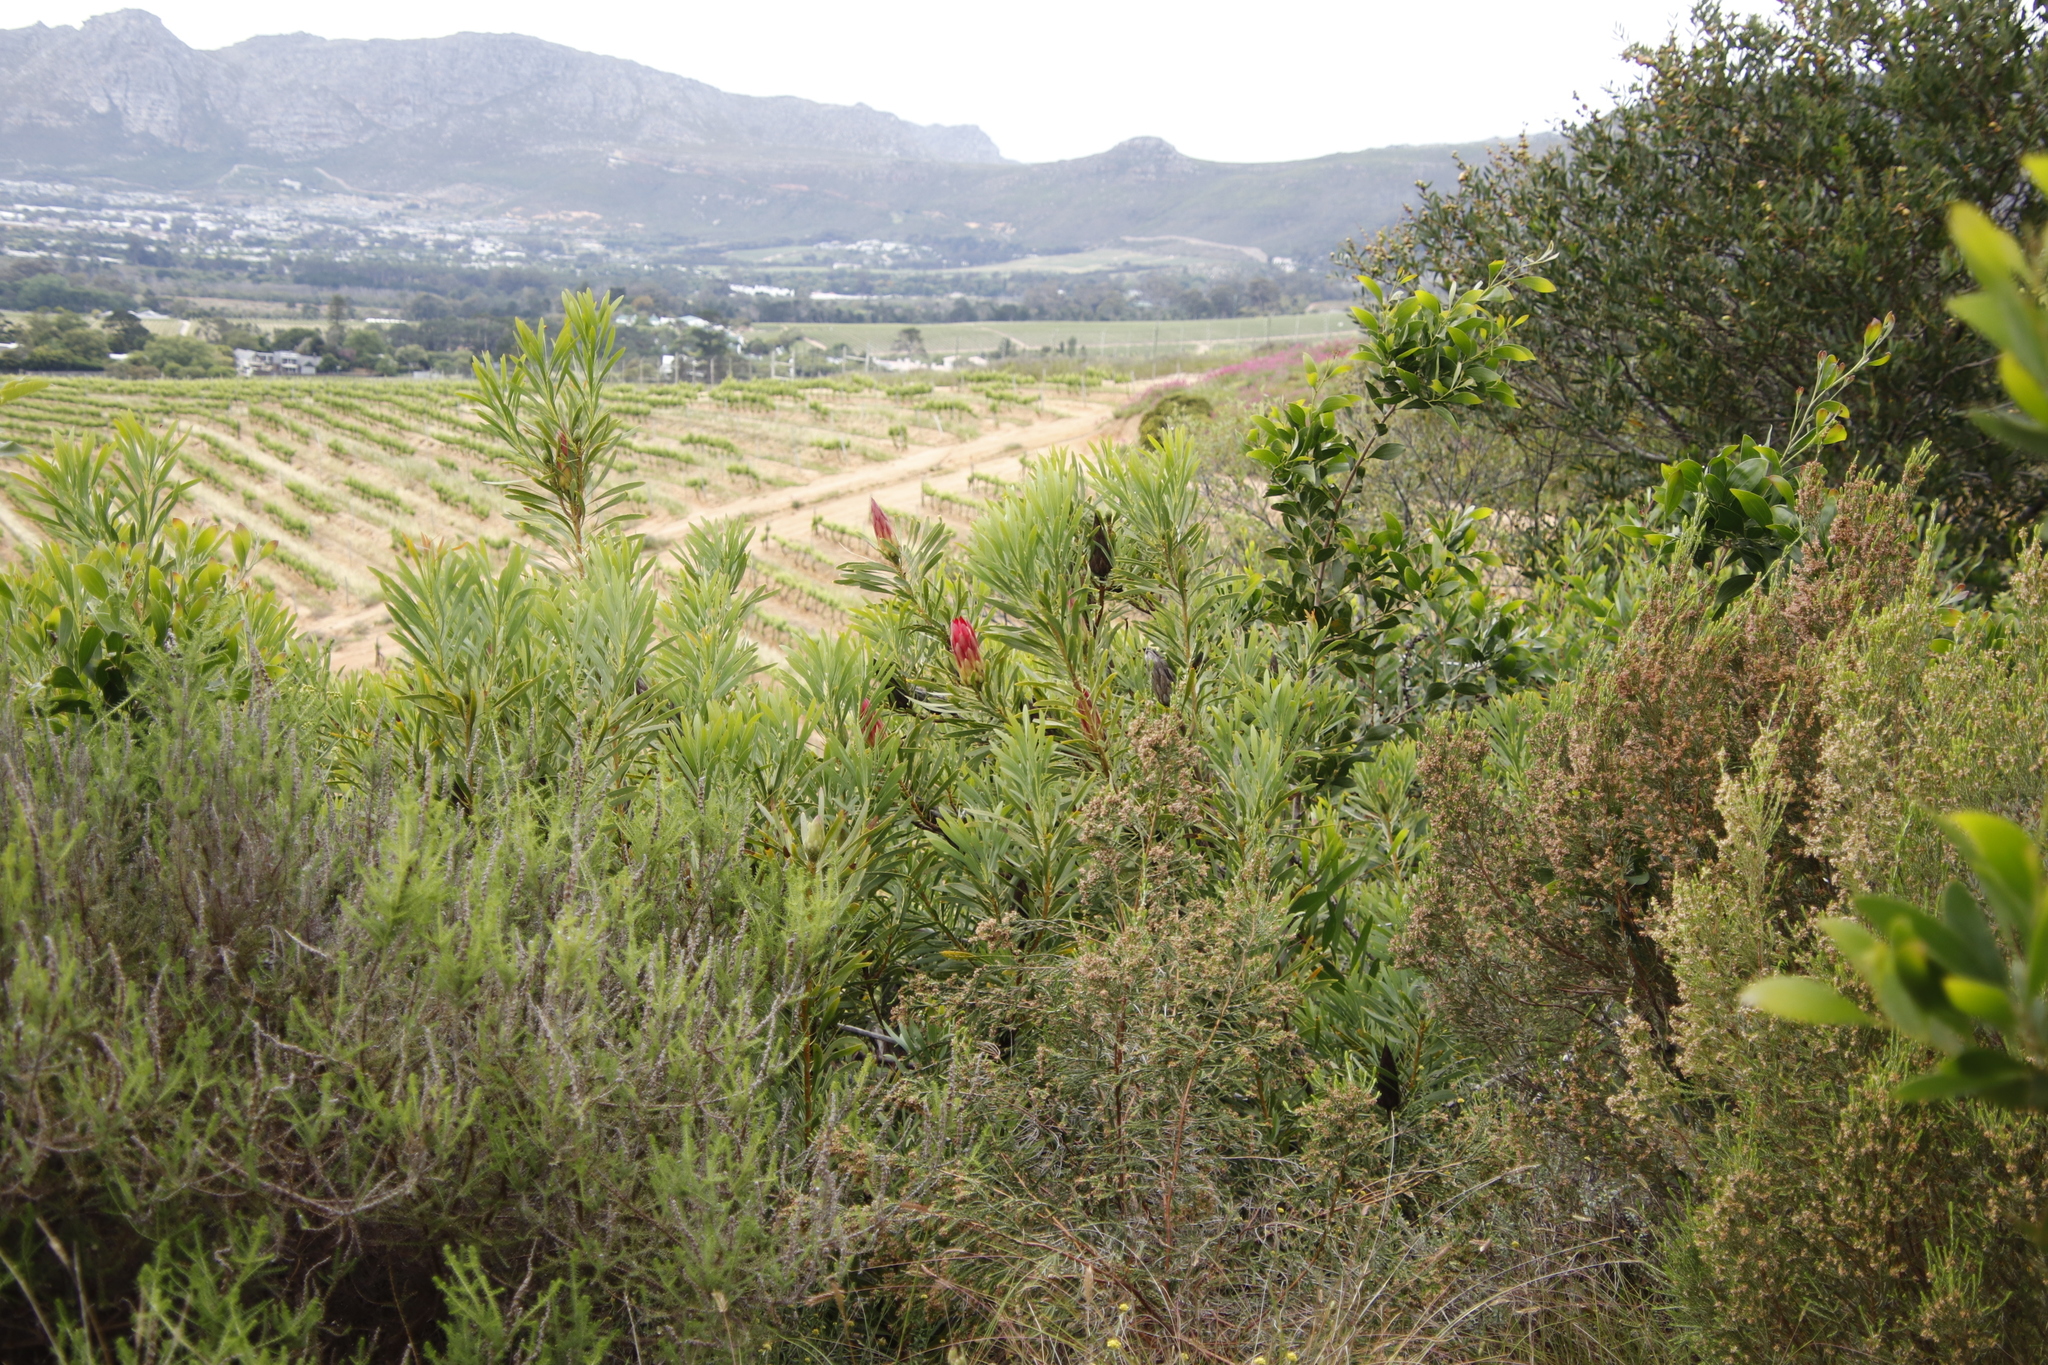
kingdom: Plantae
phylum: Tracheophyta
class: Magnoliopsida
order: Proteales
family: Proteaceae
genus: Protea
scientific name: Protea repens
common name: Sugarbush
